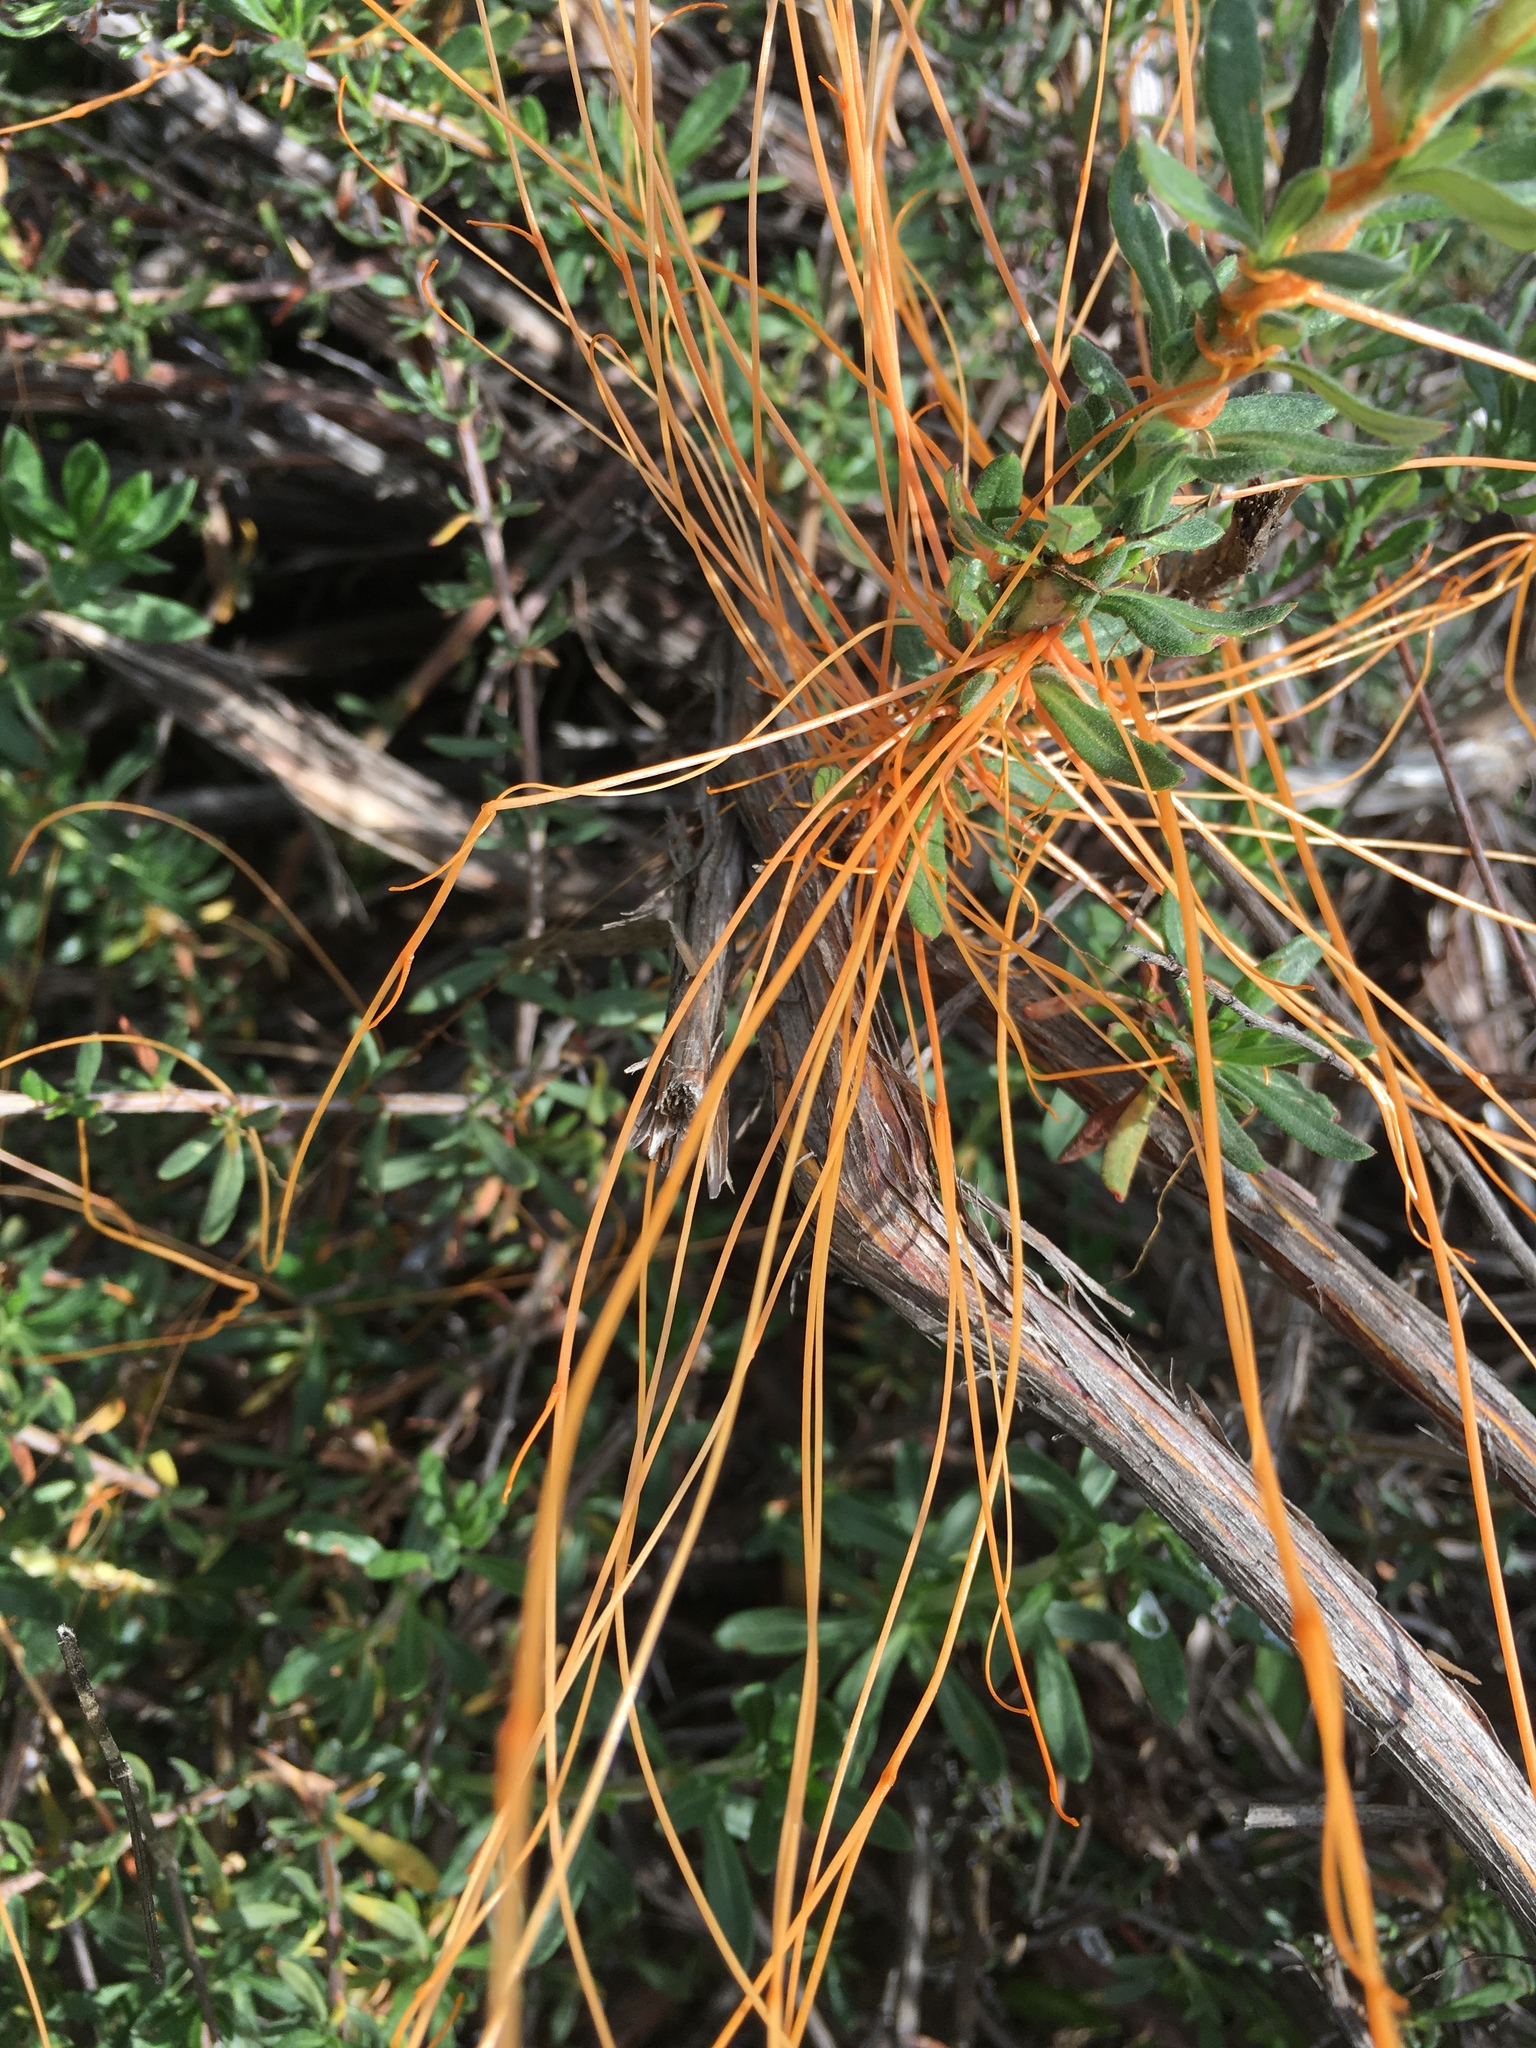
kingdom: Plantae
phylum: Tracheophyta
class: Magnoliopsida
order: Solanales
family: Convolvulaceae
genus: Cuscuta
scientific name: Cuscuta californica
